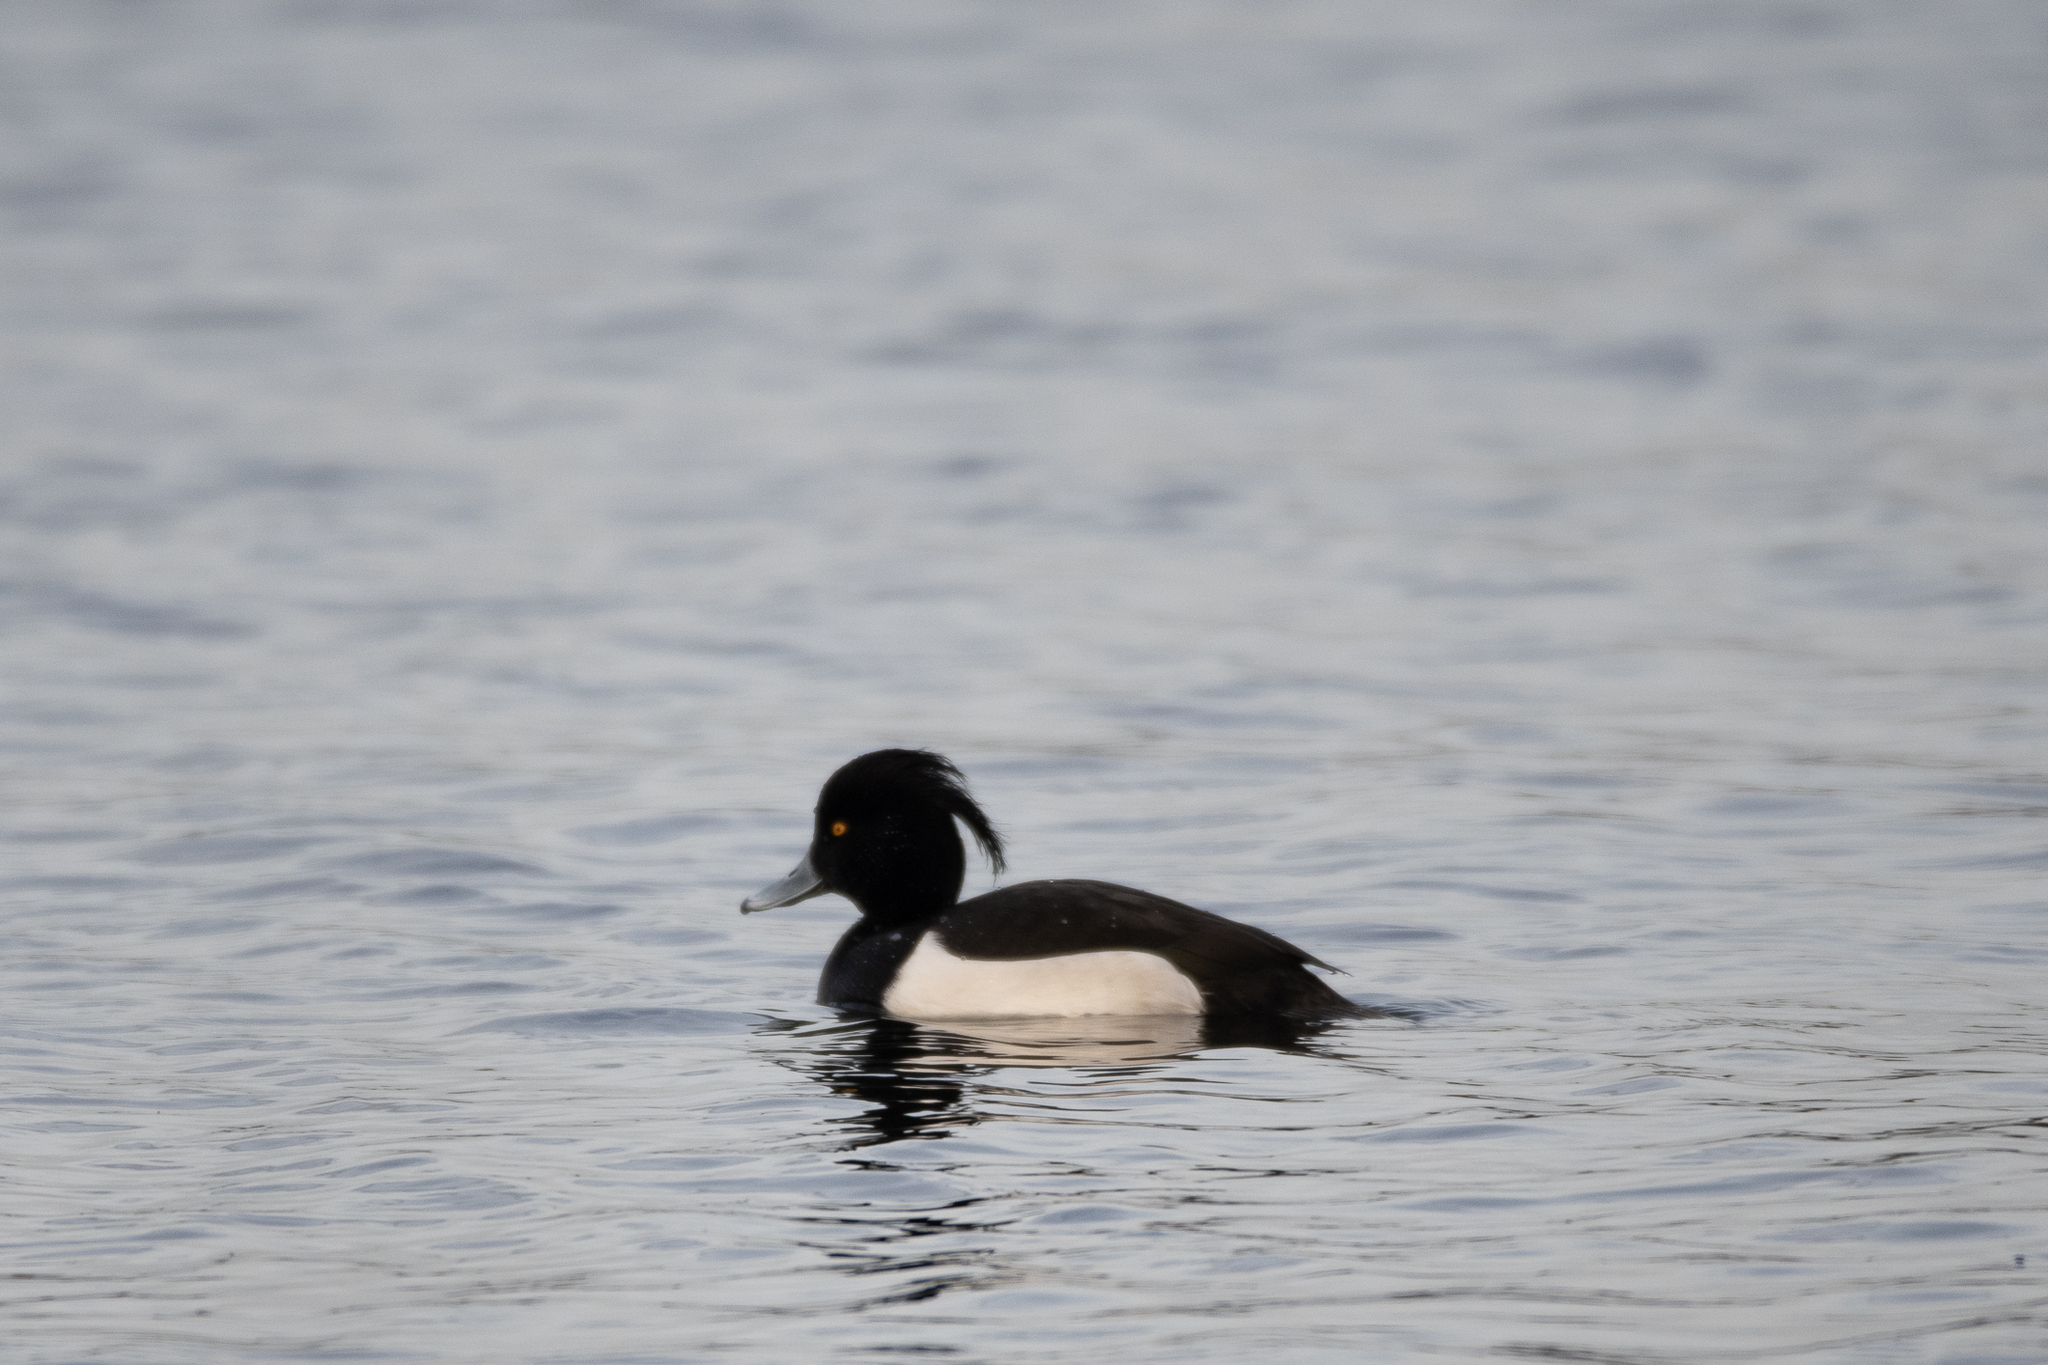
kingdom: Animalia
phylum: Chordata
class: Aves
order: Anseriformes
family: Anatidae
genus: Aythya
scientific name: Aythya fuligula
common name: Tufted duck
